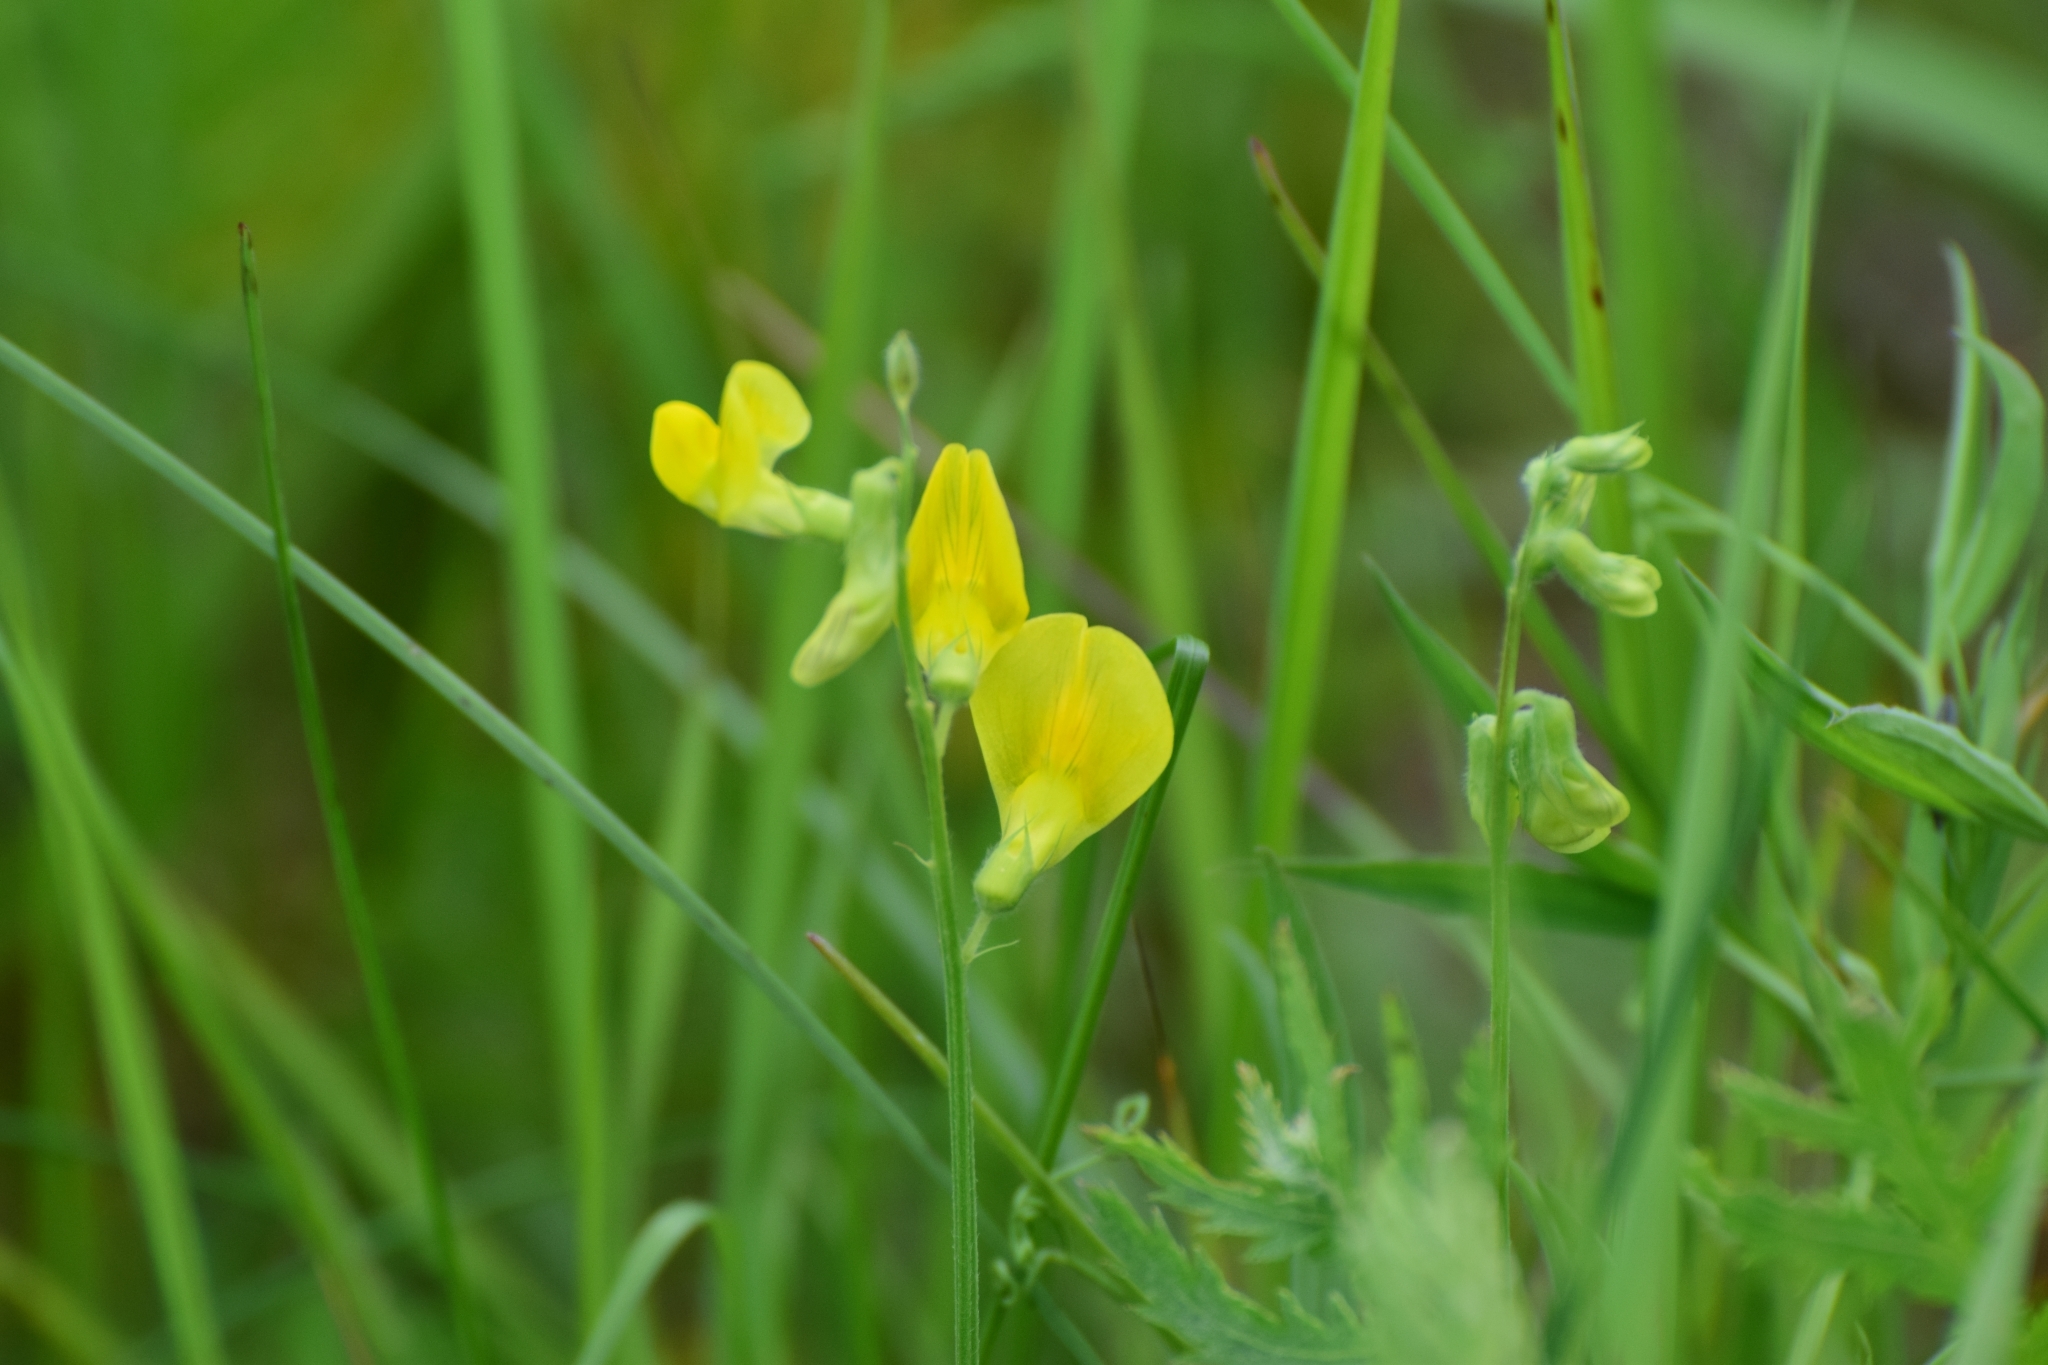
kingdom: Plantae
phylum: Tracheophyta
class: Magnoliopsida
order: Fabales
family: Fabaceae
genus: Lathyrus
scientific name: Lathyrus pratensis
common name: Meadow vetchling
